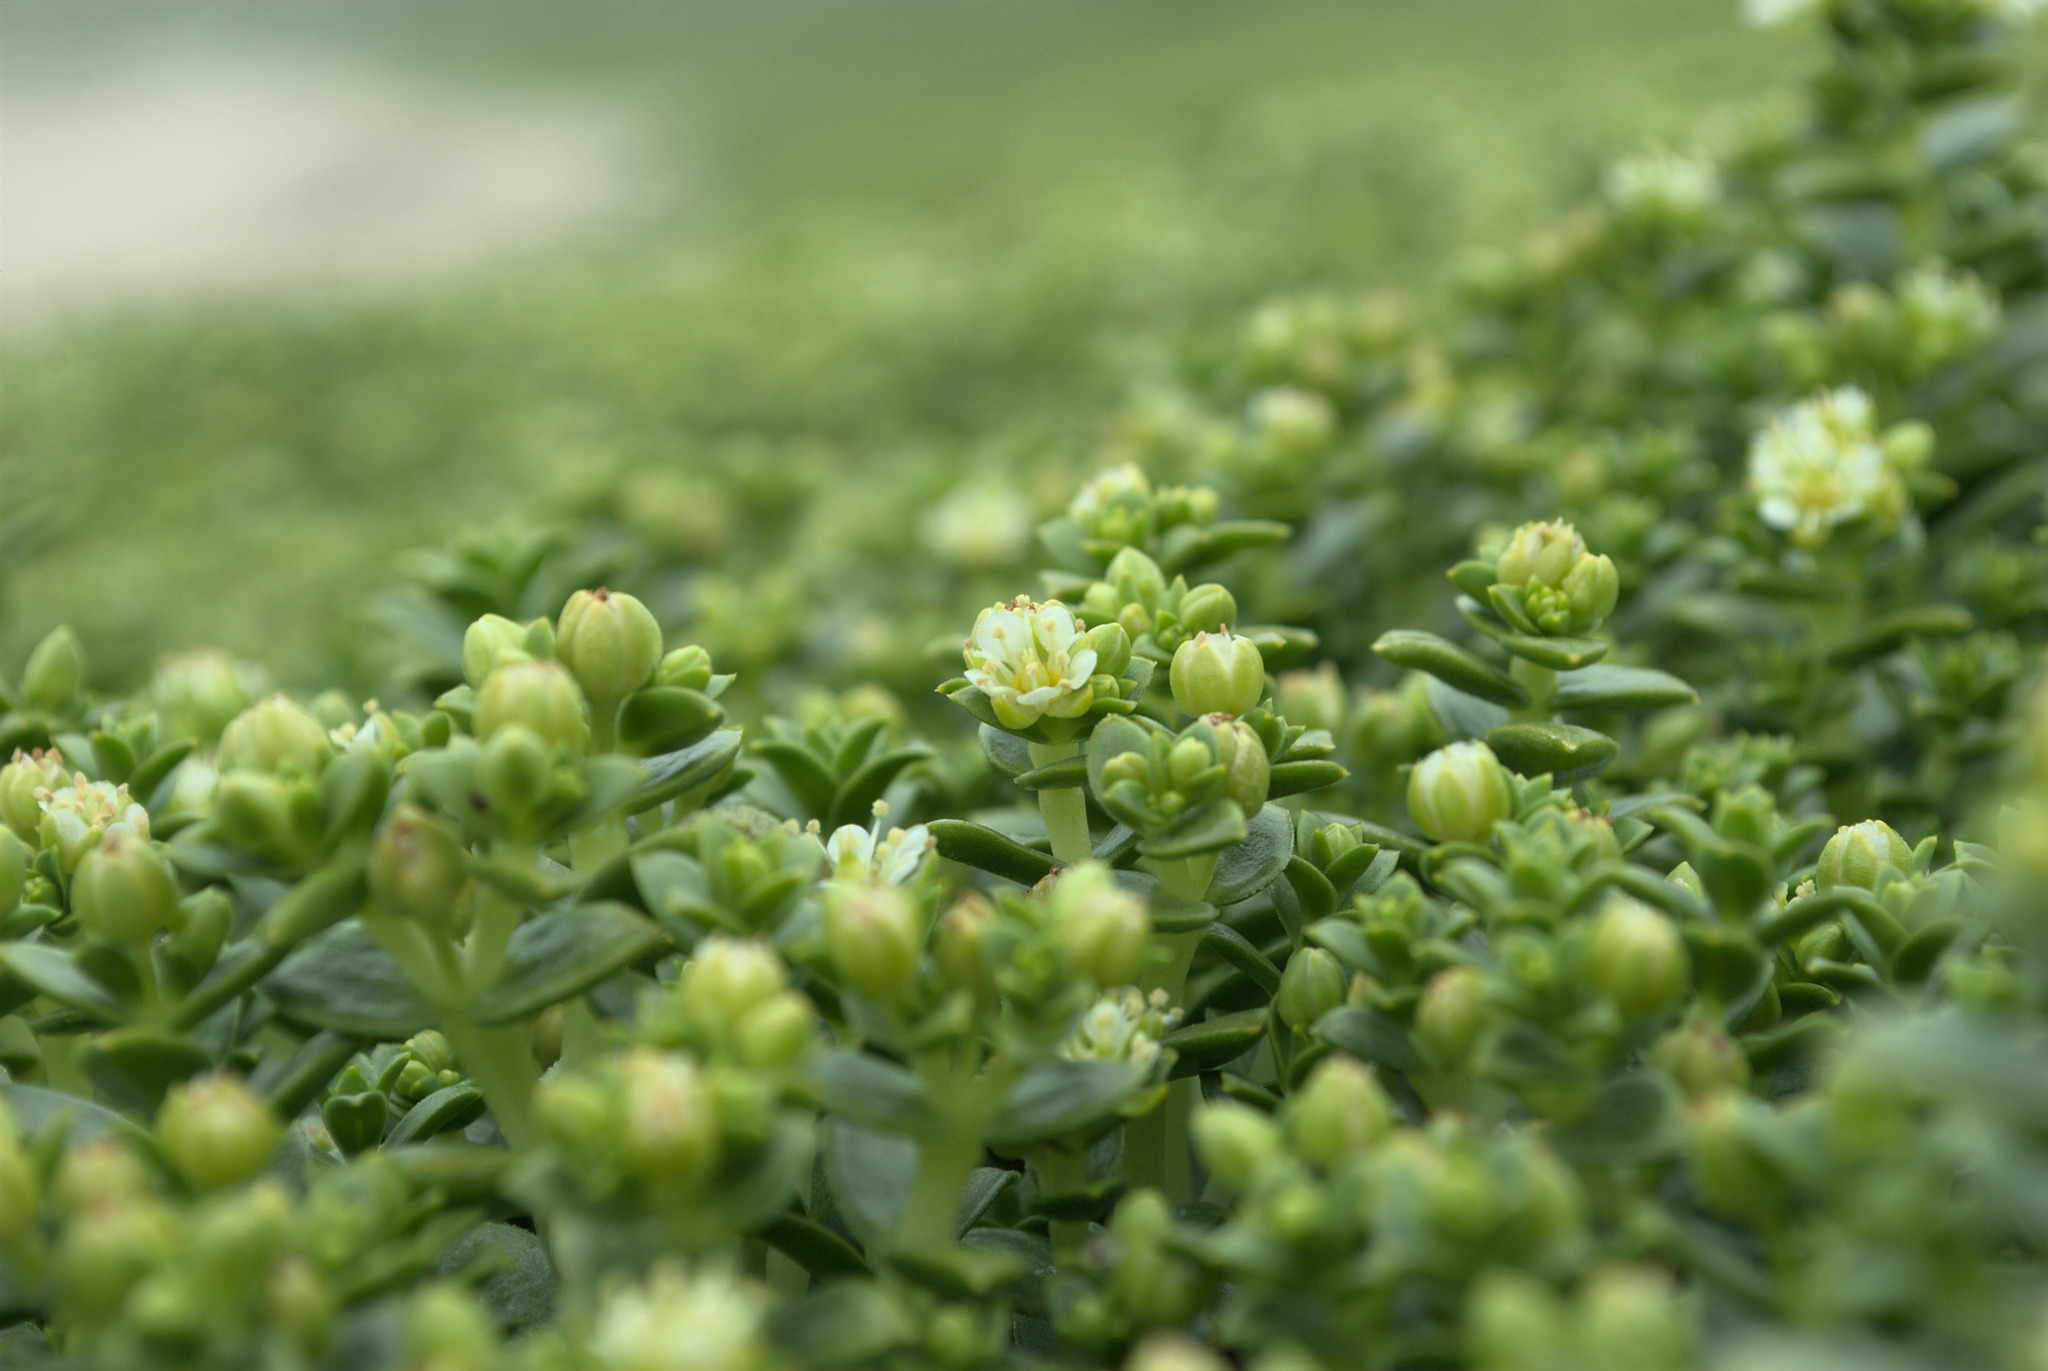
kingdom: Plantae
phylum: Tracheophyta
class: Magnoliopsida
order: Caryophyllales
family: Caryophyllaceae
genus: Honckenya
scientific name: Honckenya peploides
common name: Sea sandwort
